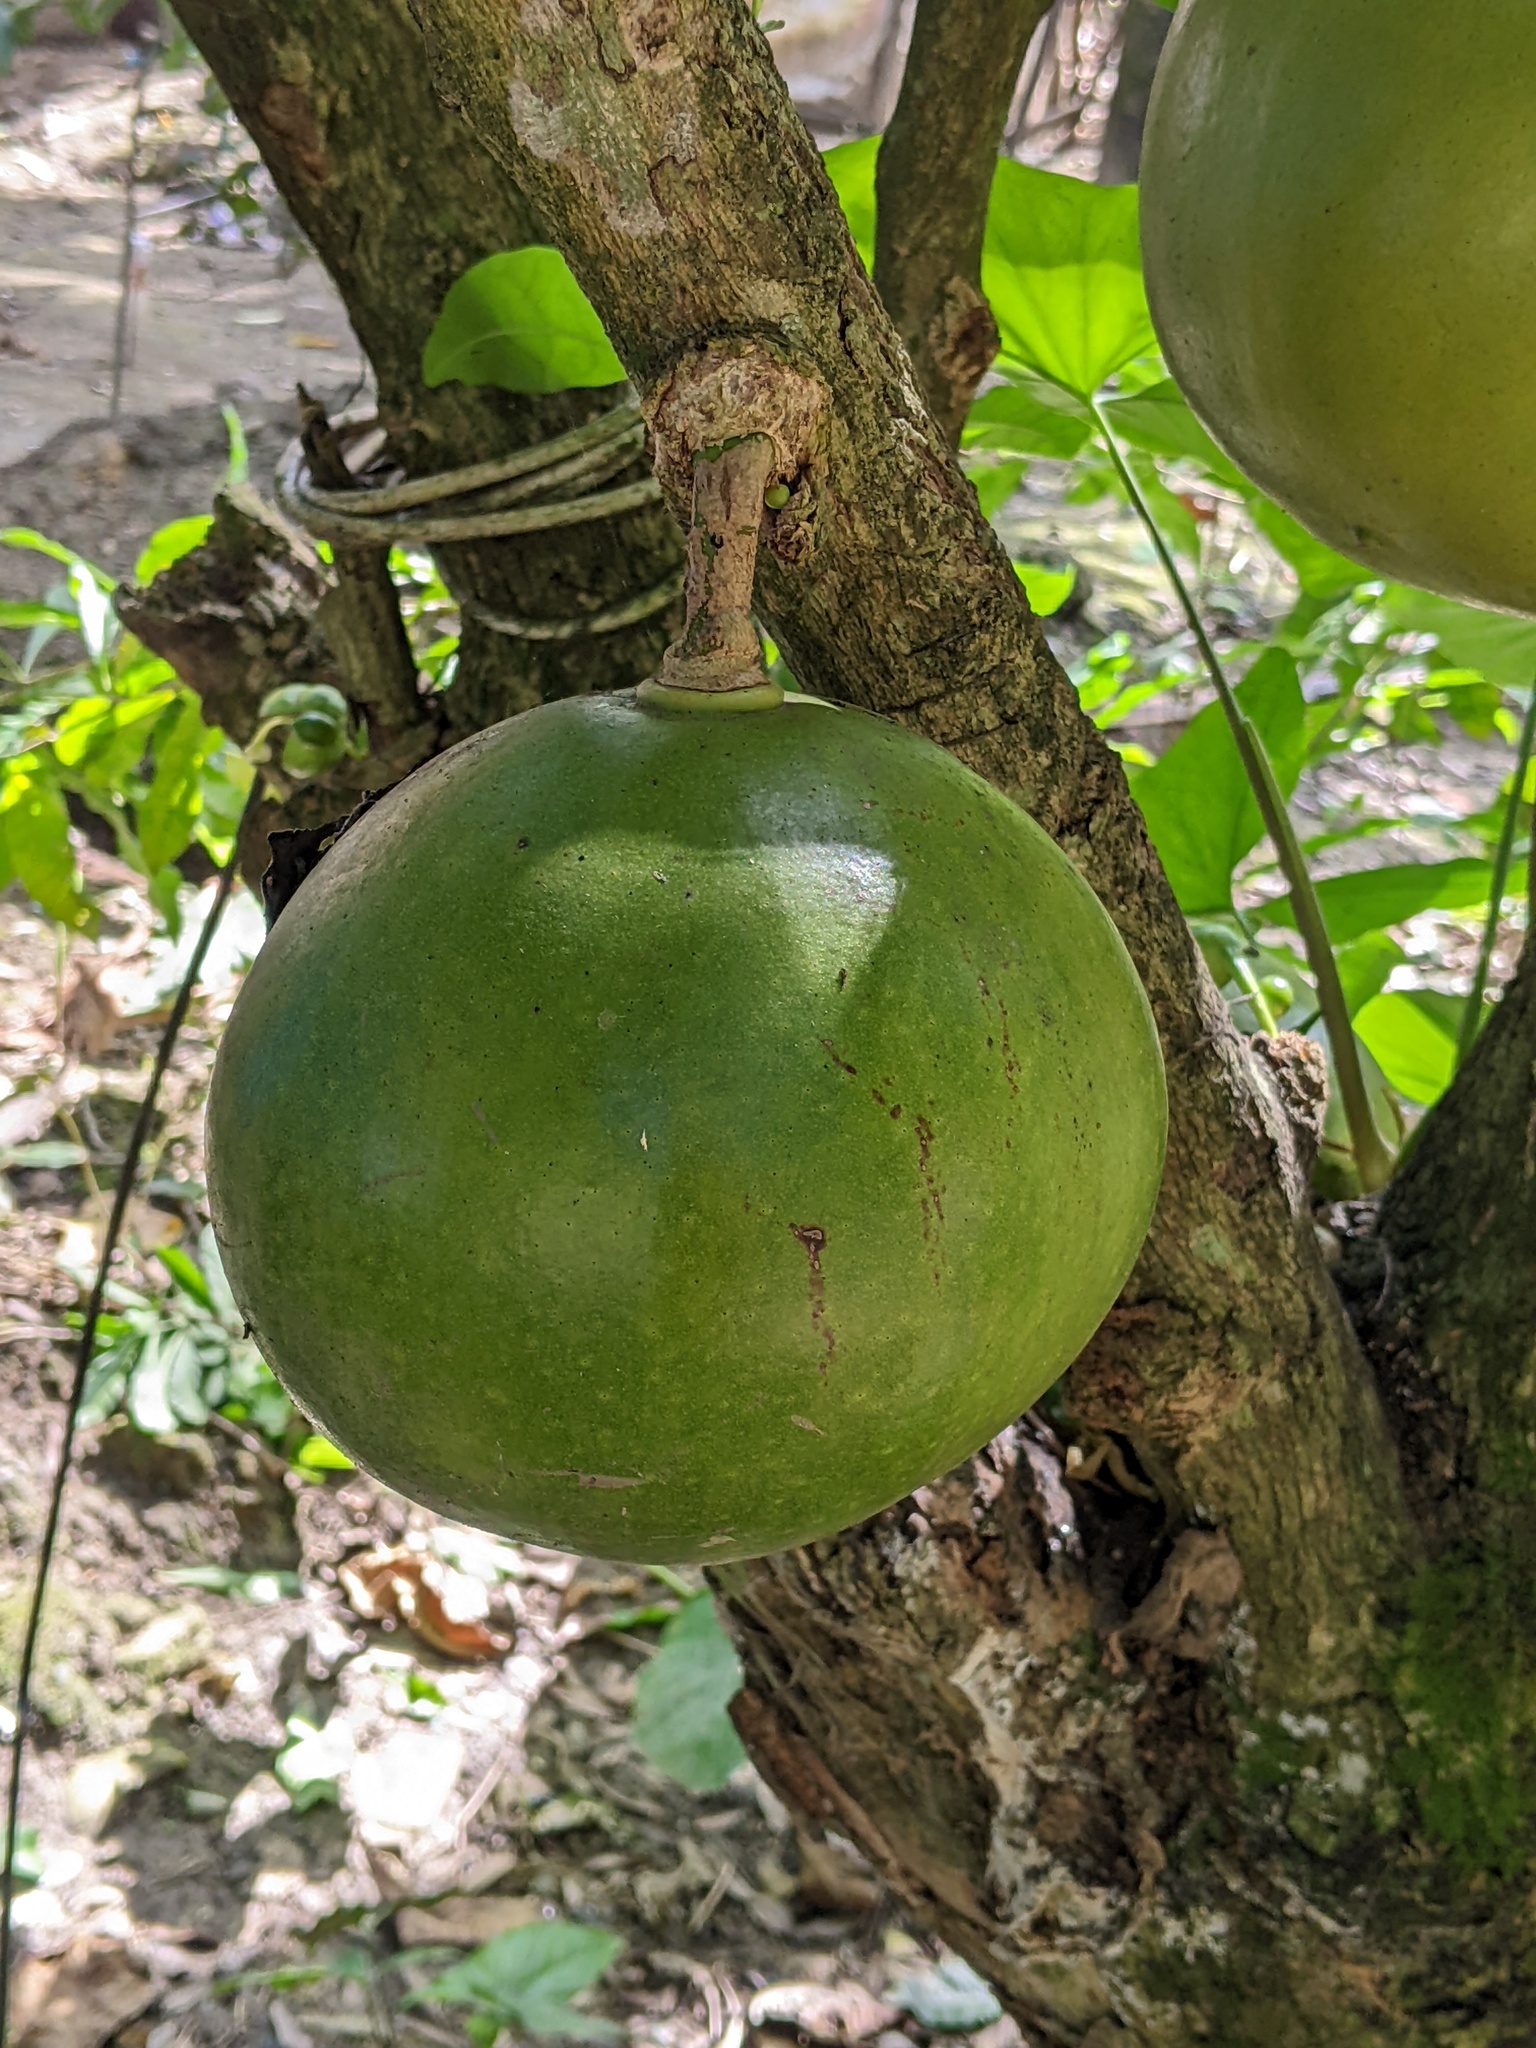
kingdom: Plantae
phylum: Tracheophyta
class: Magnoliopsida
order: Lamiales
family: Bignoniaceae
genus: Crescentia
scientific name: Crescentia cujete
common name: Calabash
